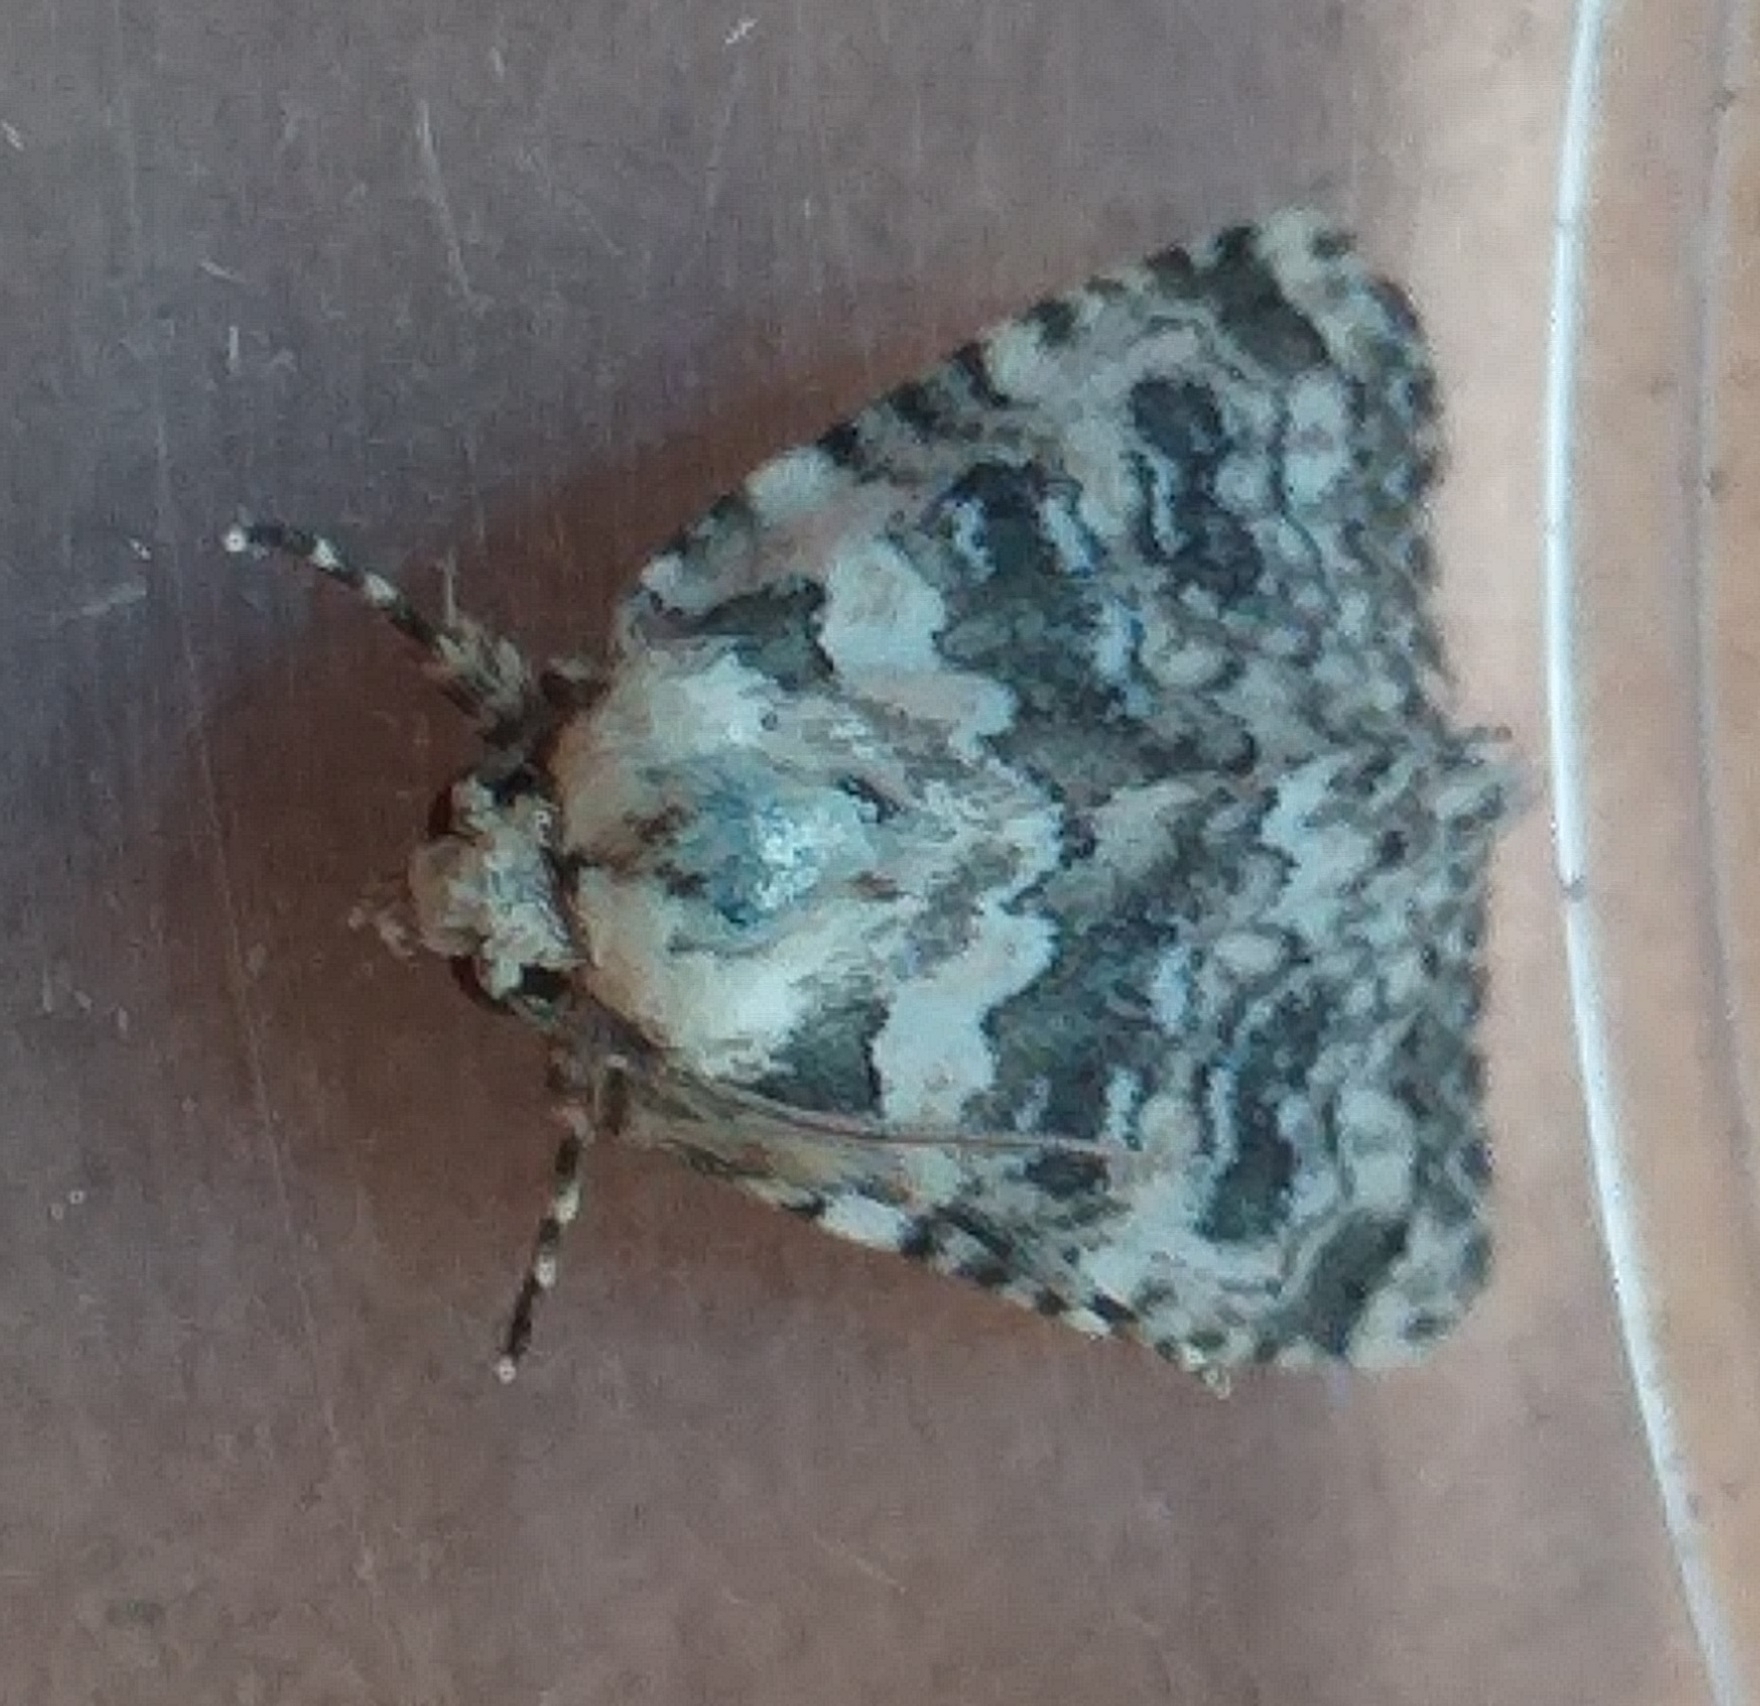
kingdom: Animalia
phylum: Arthropoda
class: Insecta
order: Lepidoptera
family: Noctuidae
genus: Bryophila
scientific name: Bryophila domestica
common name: Marbled beauty
